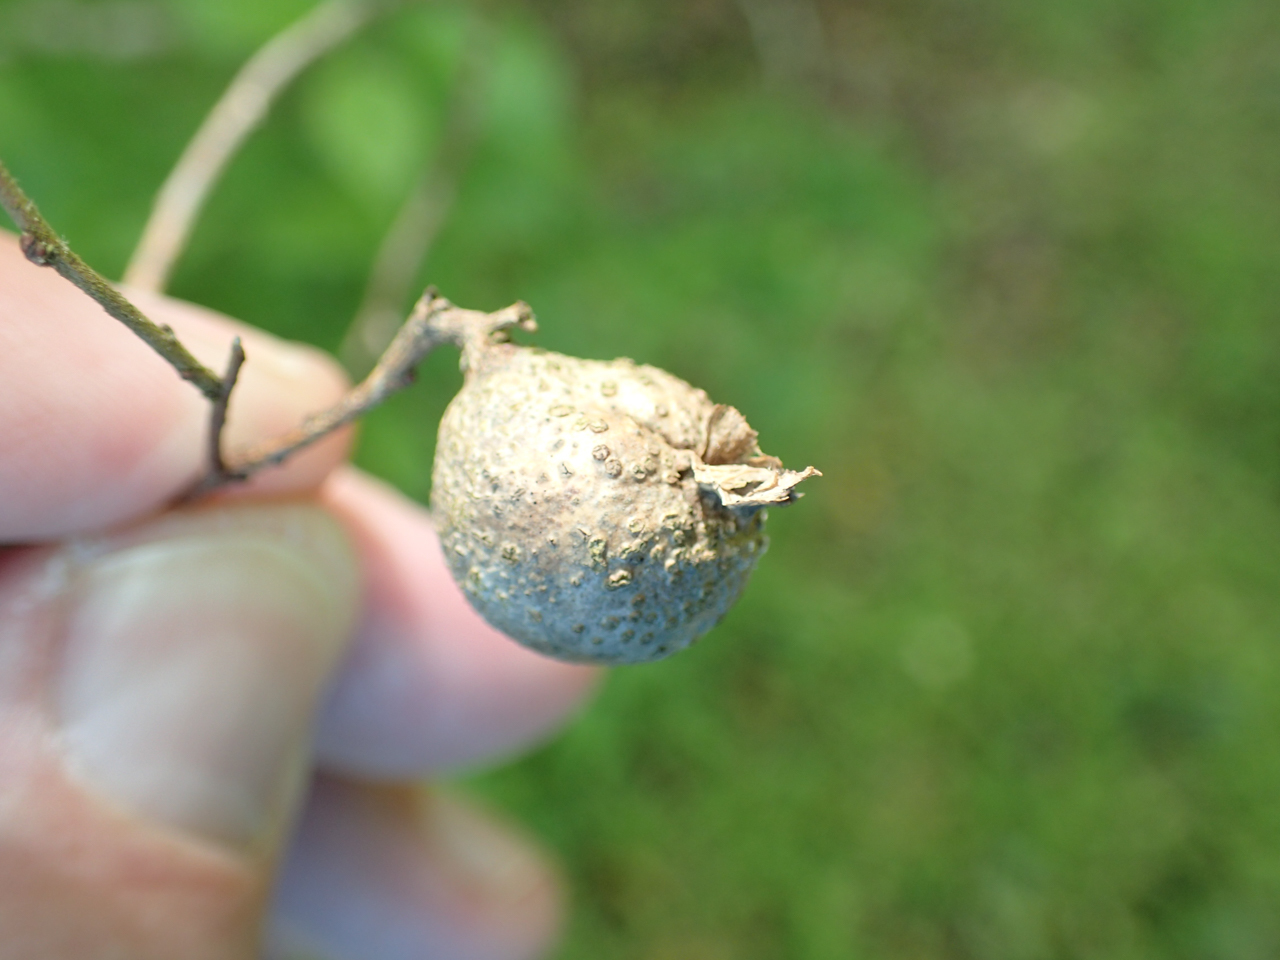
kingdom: Animalia
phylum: Arthropoda
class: Insecta
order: Hemiptera
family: Aphalaridae
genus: Pachypsylla
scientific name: Pachypsylla venusta
